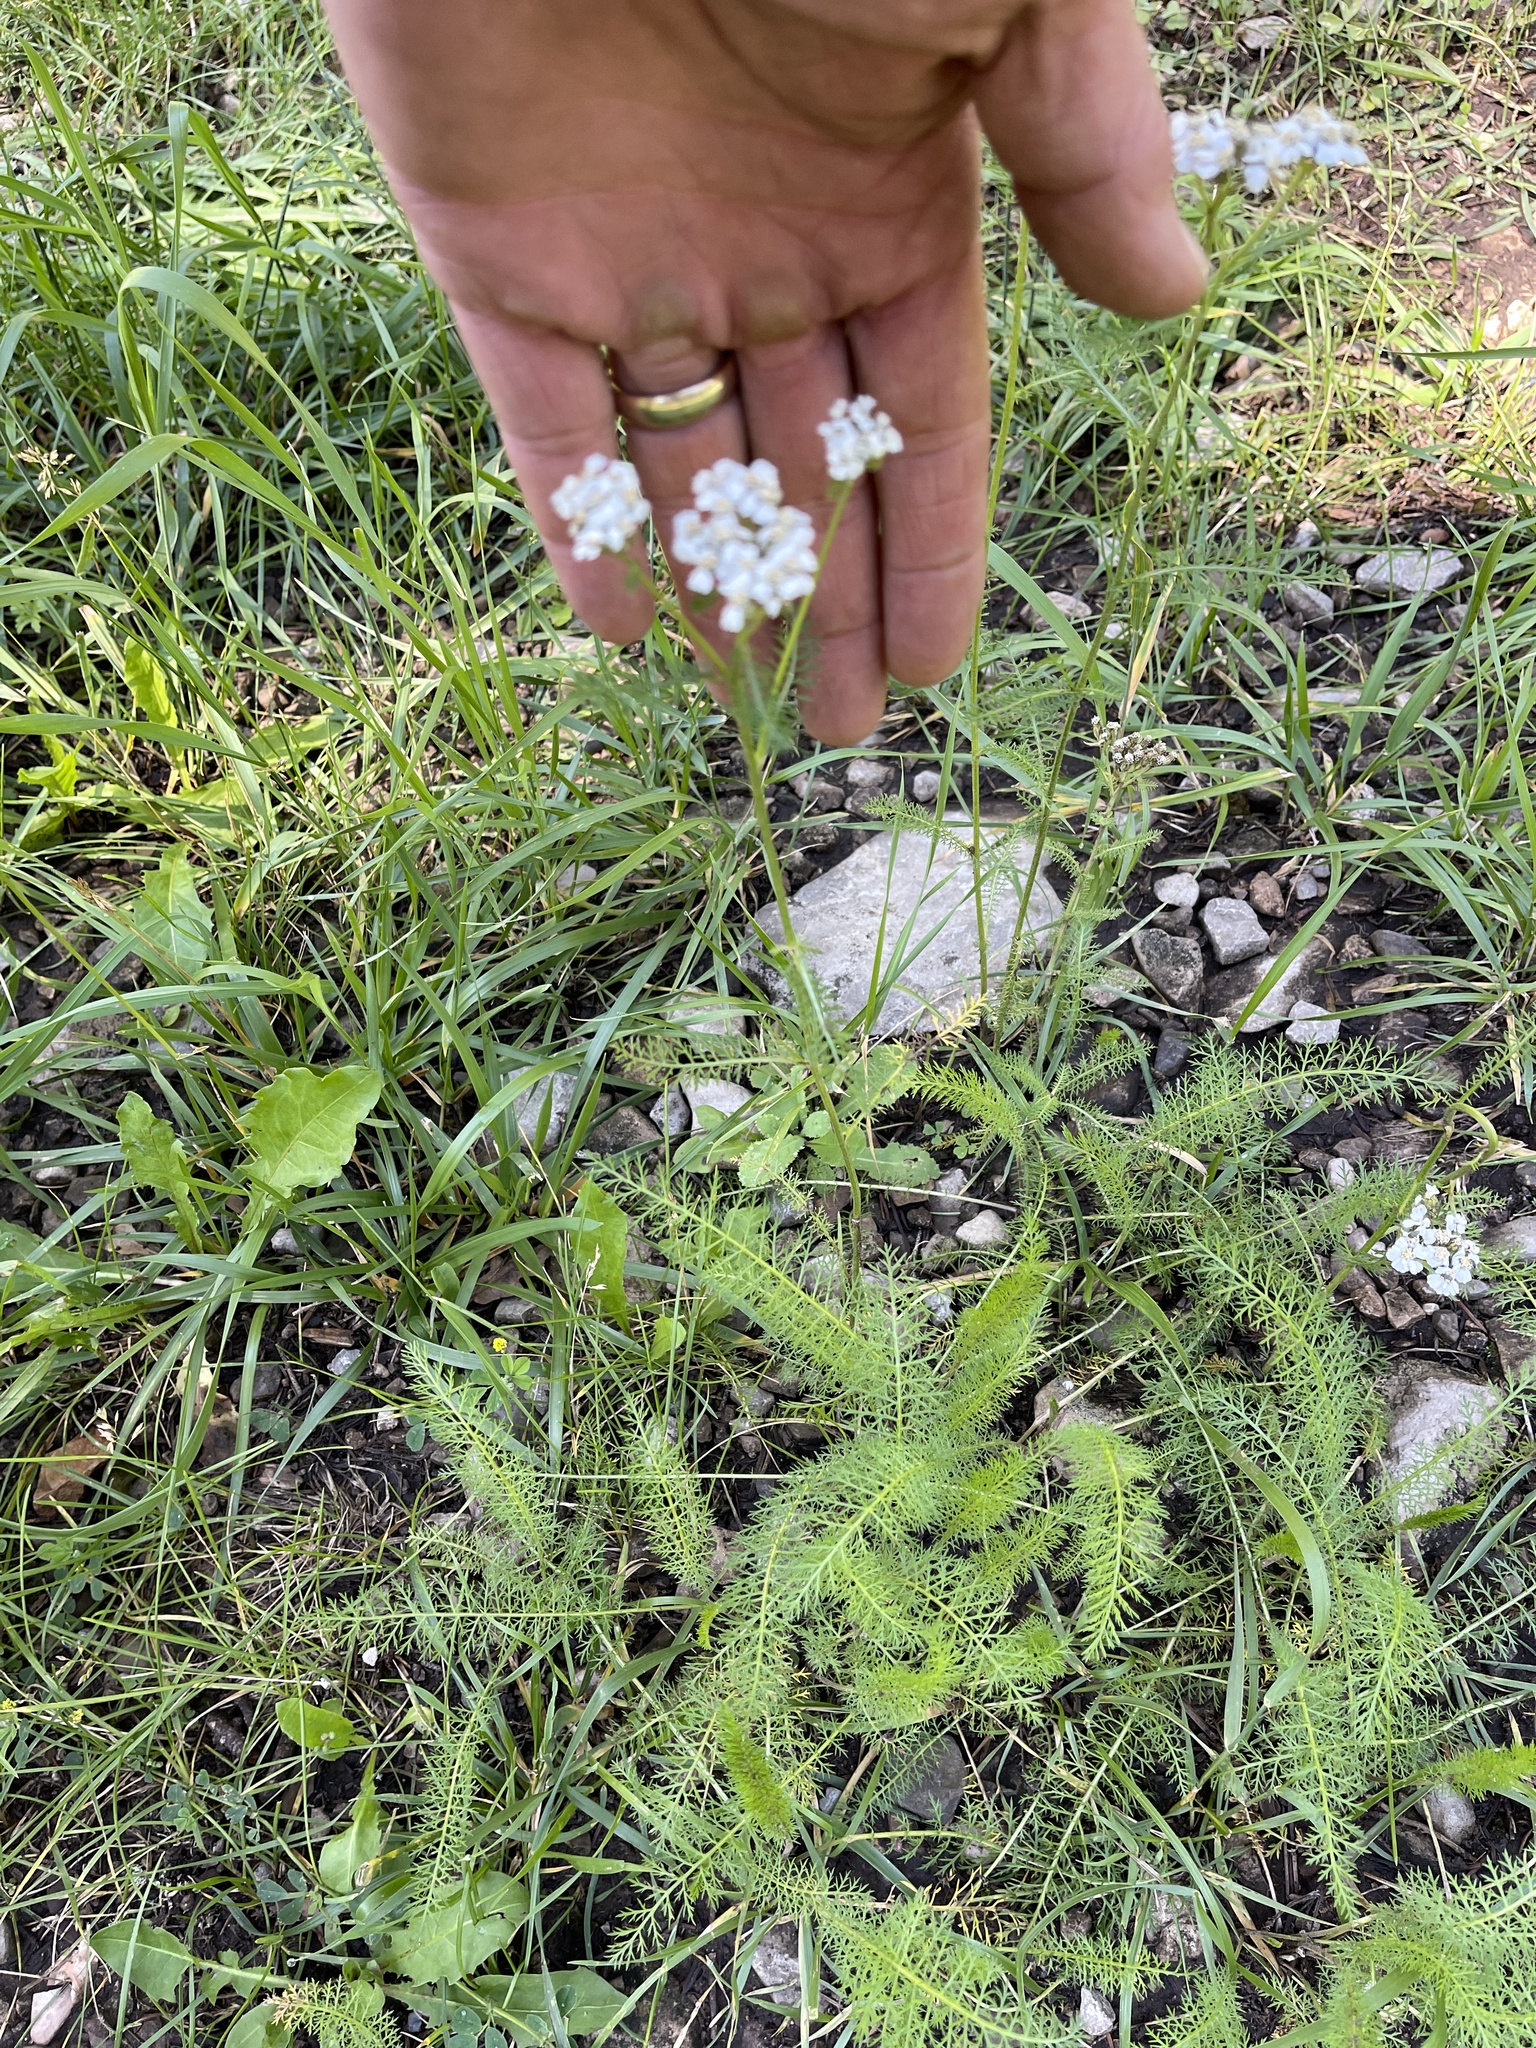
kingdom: Plantae
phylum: Tracheophyta
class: Magnoliopsida
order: Asterales
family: Asteraceae
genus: Achillea
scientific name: Achillea millefolium
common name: Yarrow
